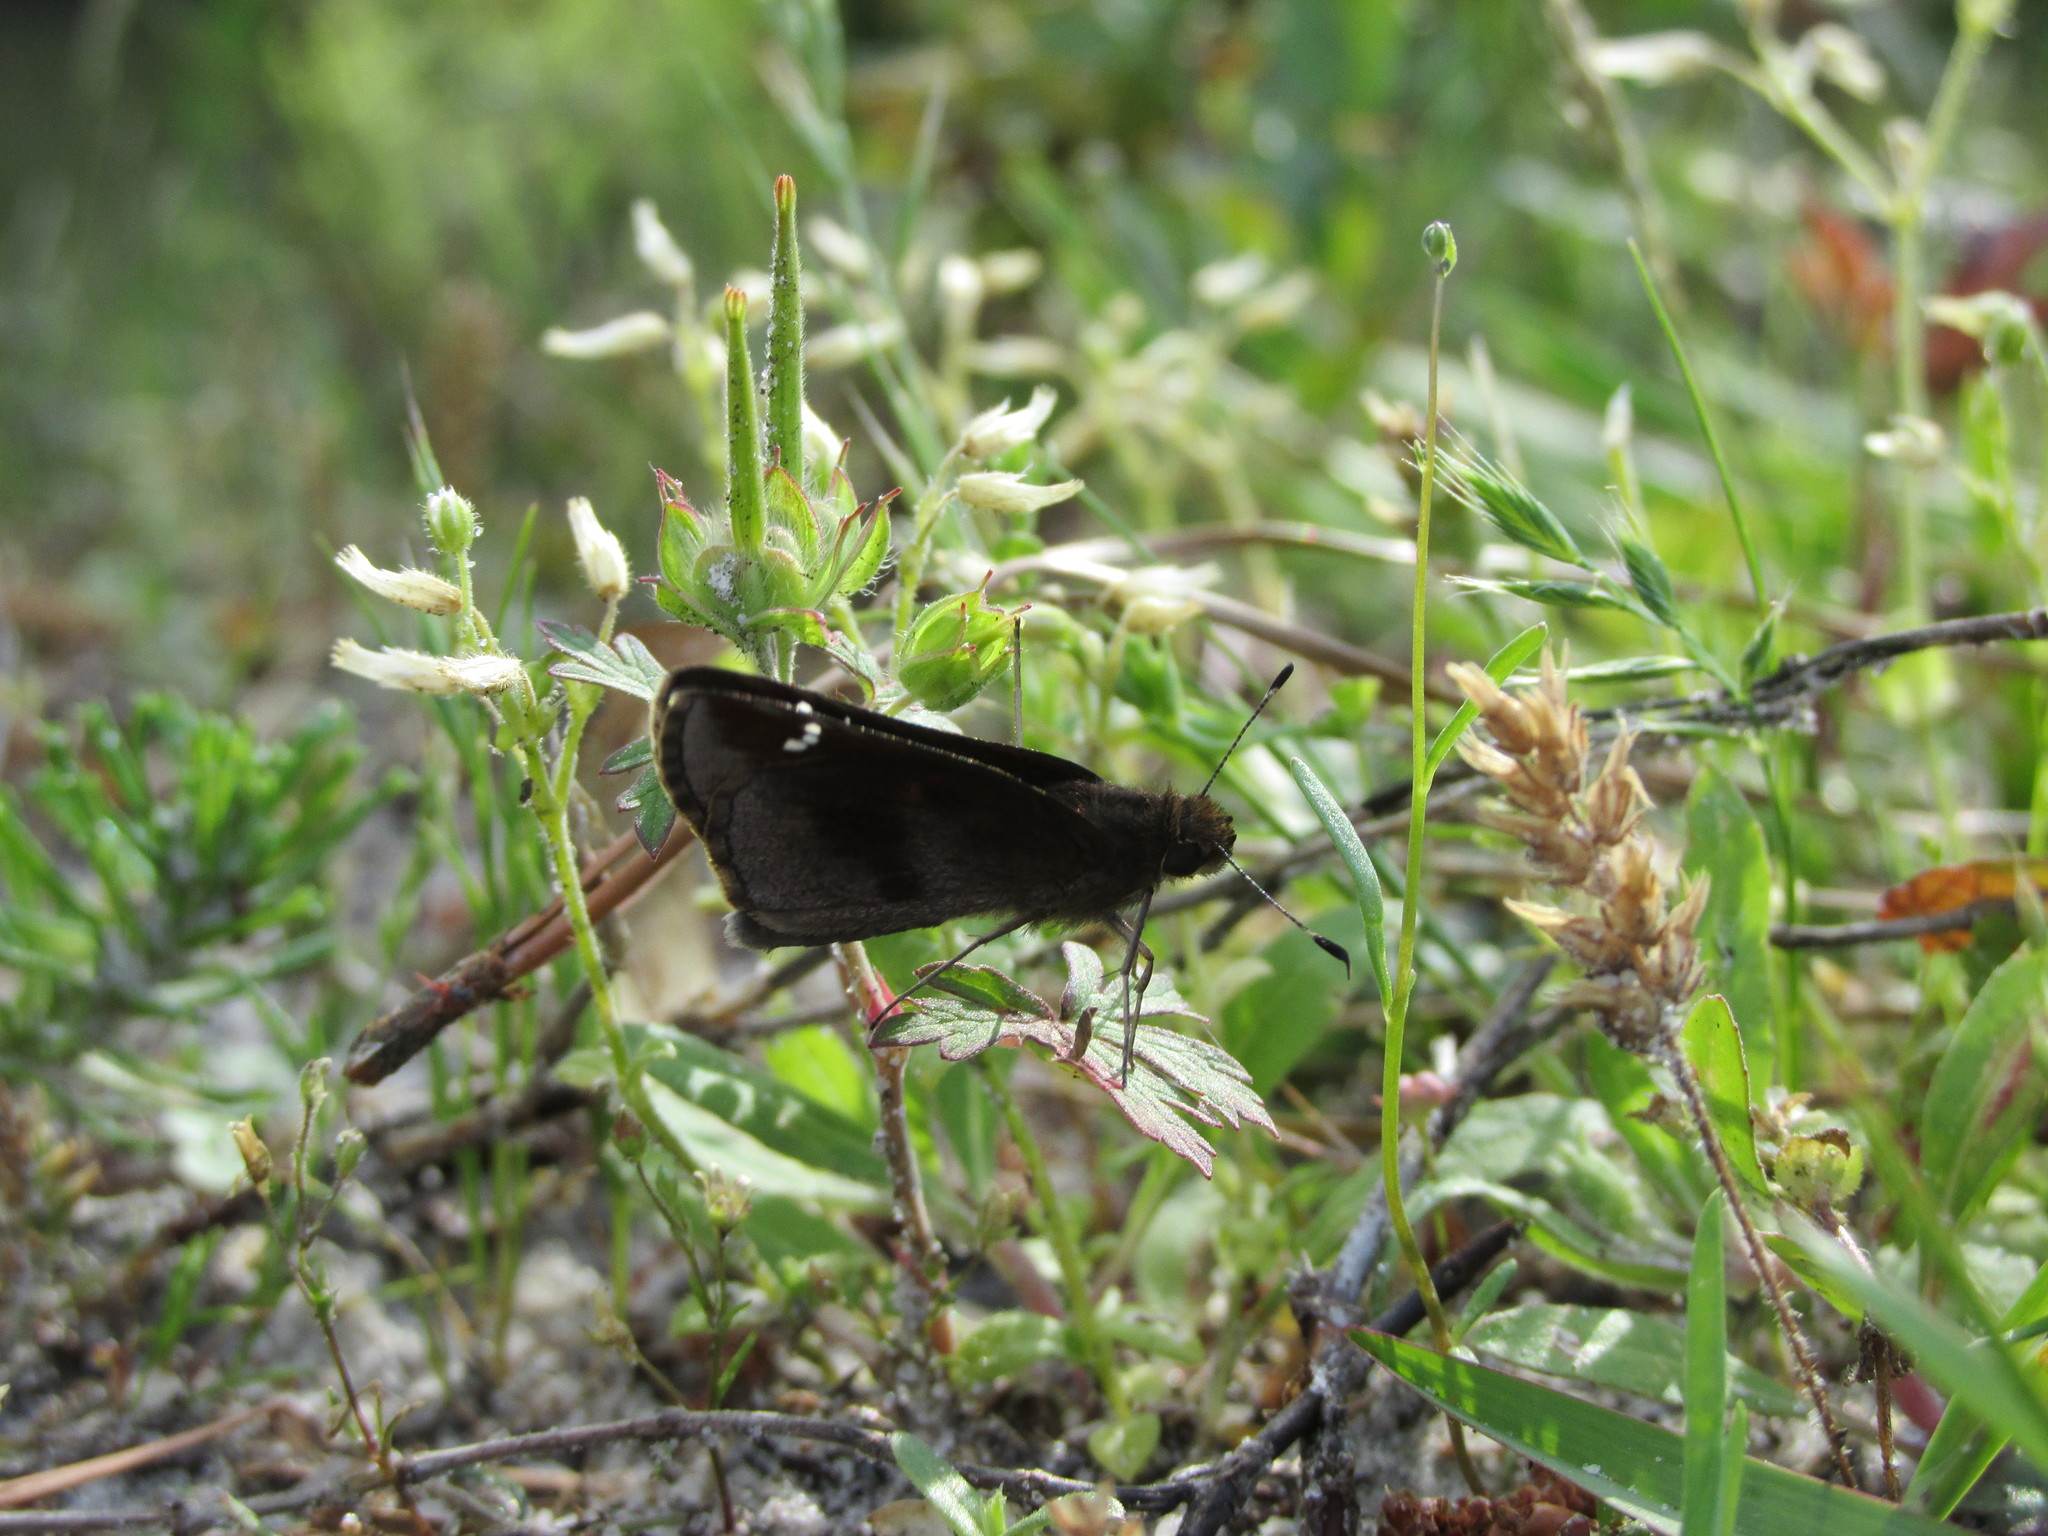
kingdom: Animalia
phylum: Arthropoda
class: Insecta
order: Lepidoptera
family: Hesperiidae
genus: Lerema
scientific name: Lerema accius
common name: Clouded skipper
